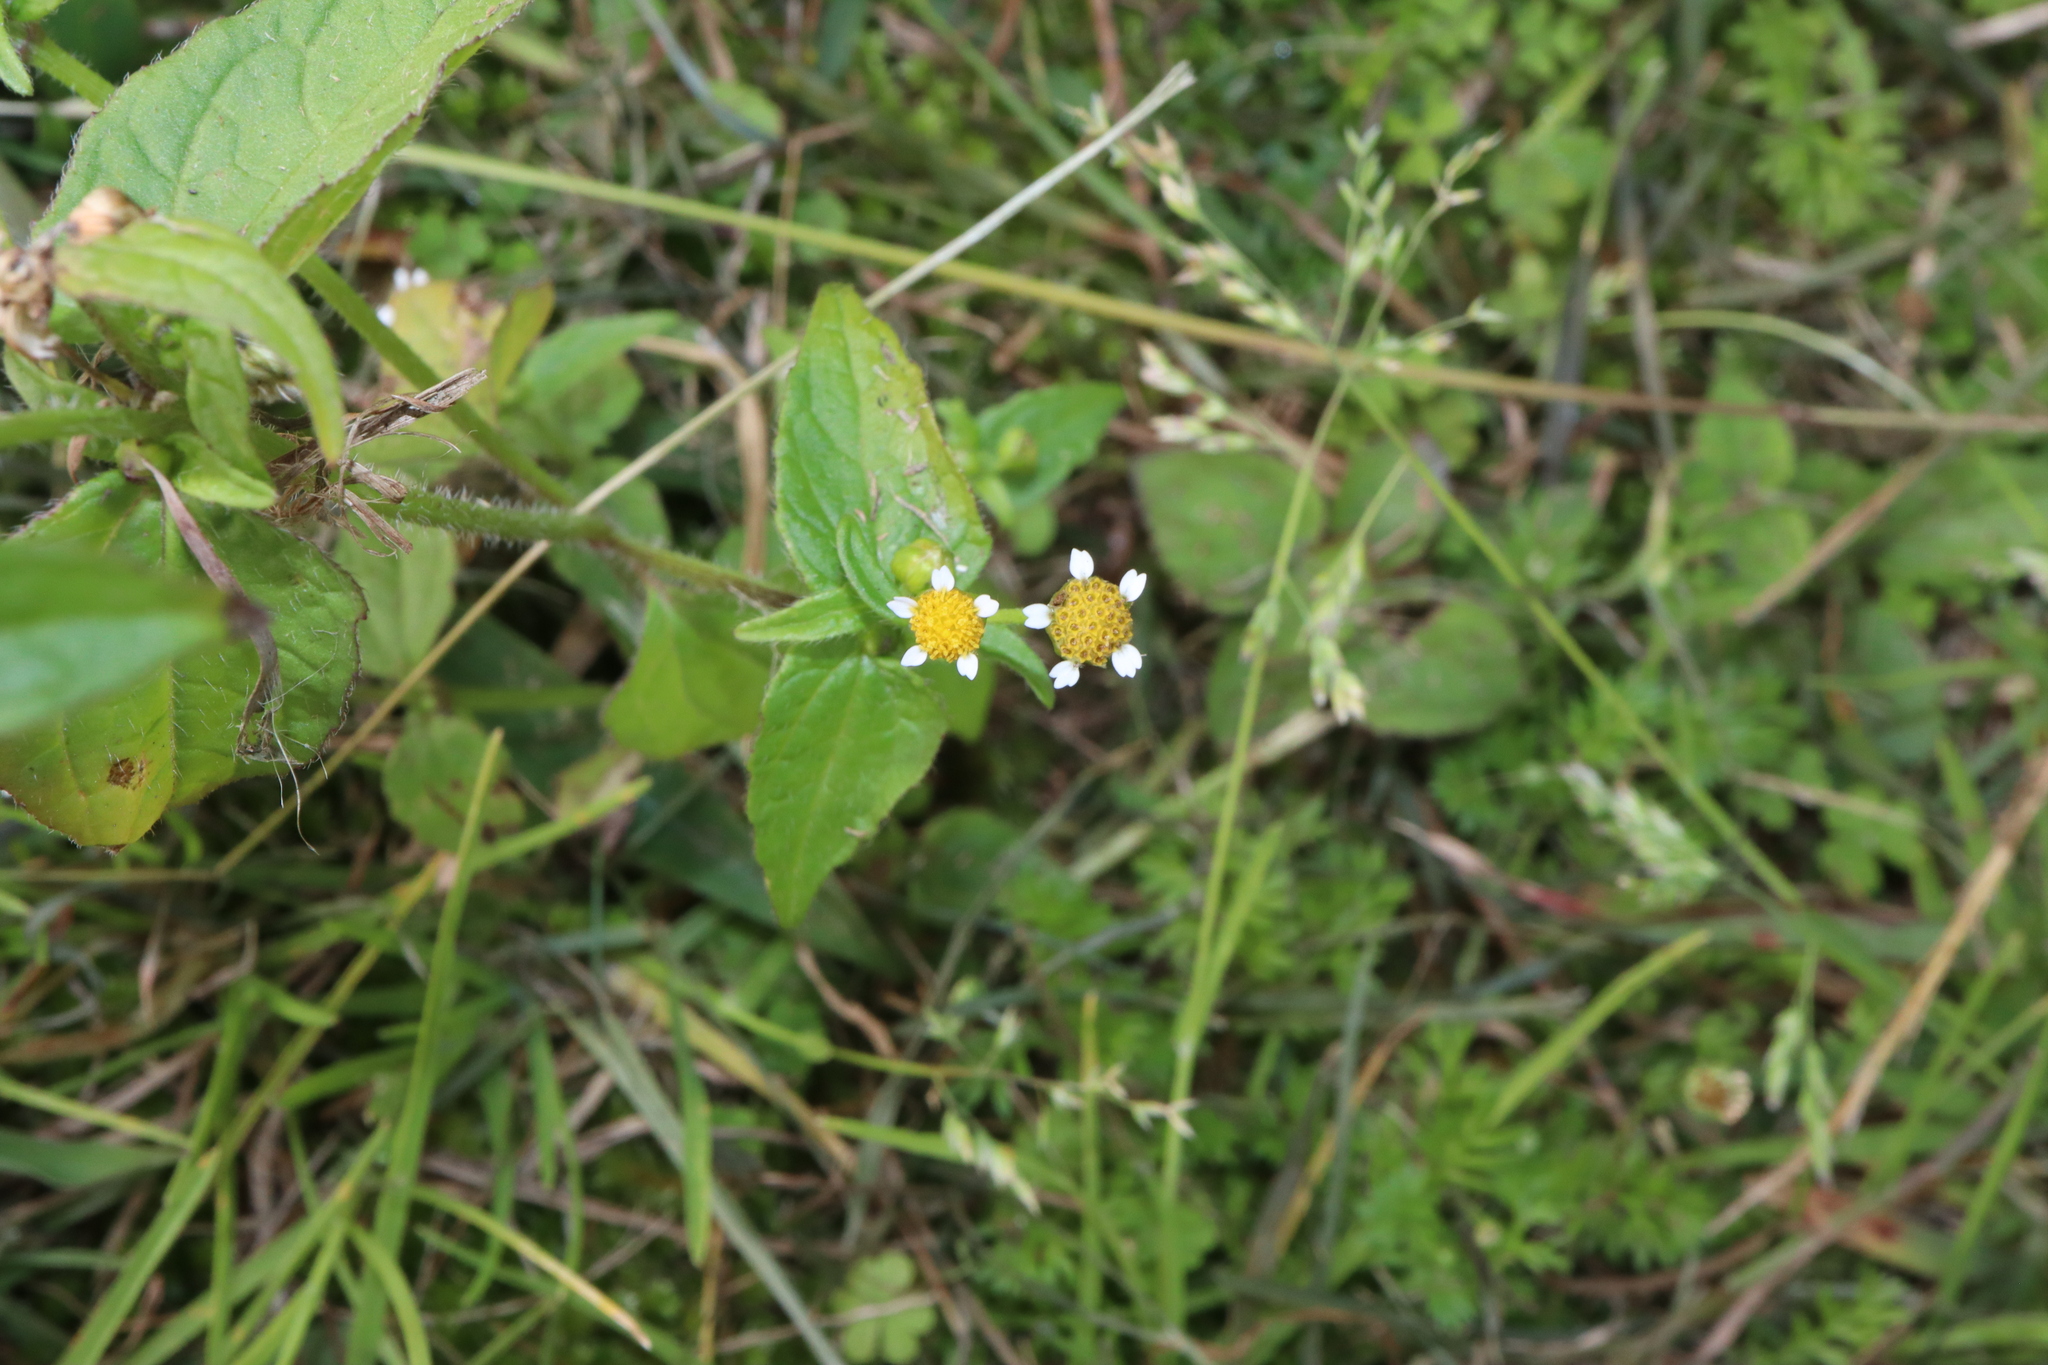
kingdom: Plantae
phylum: Tracheophyta
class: Magnoliopsida
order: Asterales
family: Asteraceae
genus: Galinsoga
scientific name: Galinsoga parviflora
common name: Gallant soldier
